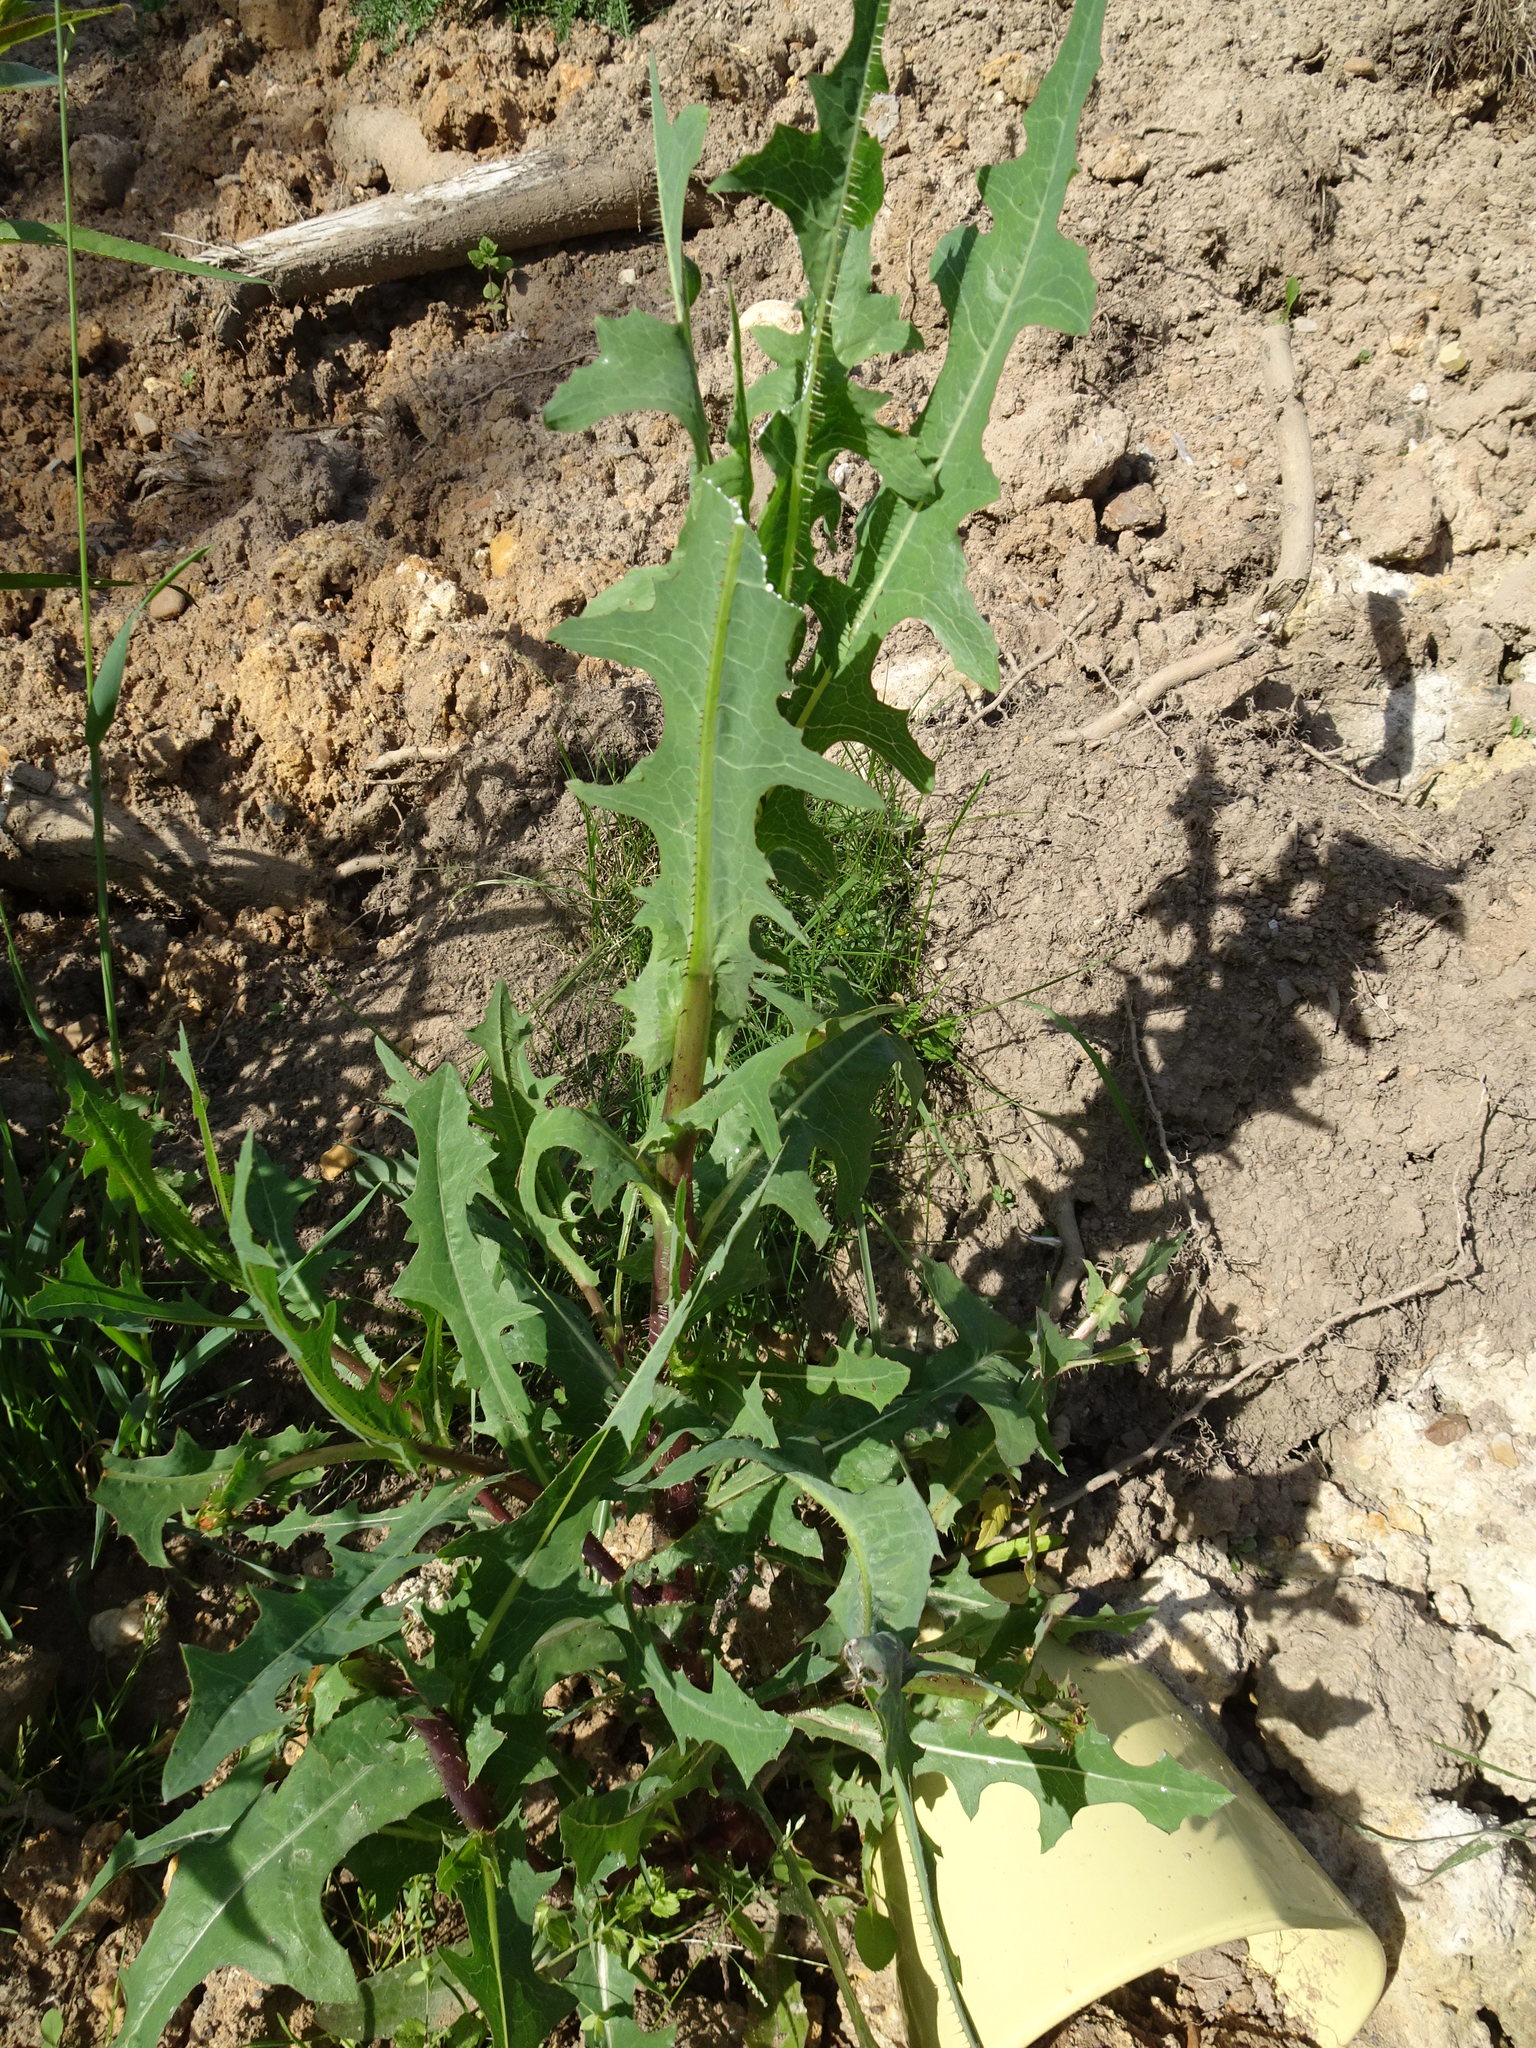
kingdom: Plantae
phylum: Tracheophyta
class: Magnoliopsida
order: Asterales
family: Asteraceae
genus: Lactuca
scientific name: Lactuca serriola
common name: Prickly lettuce
